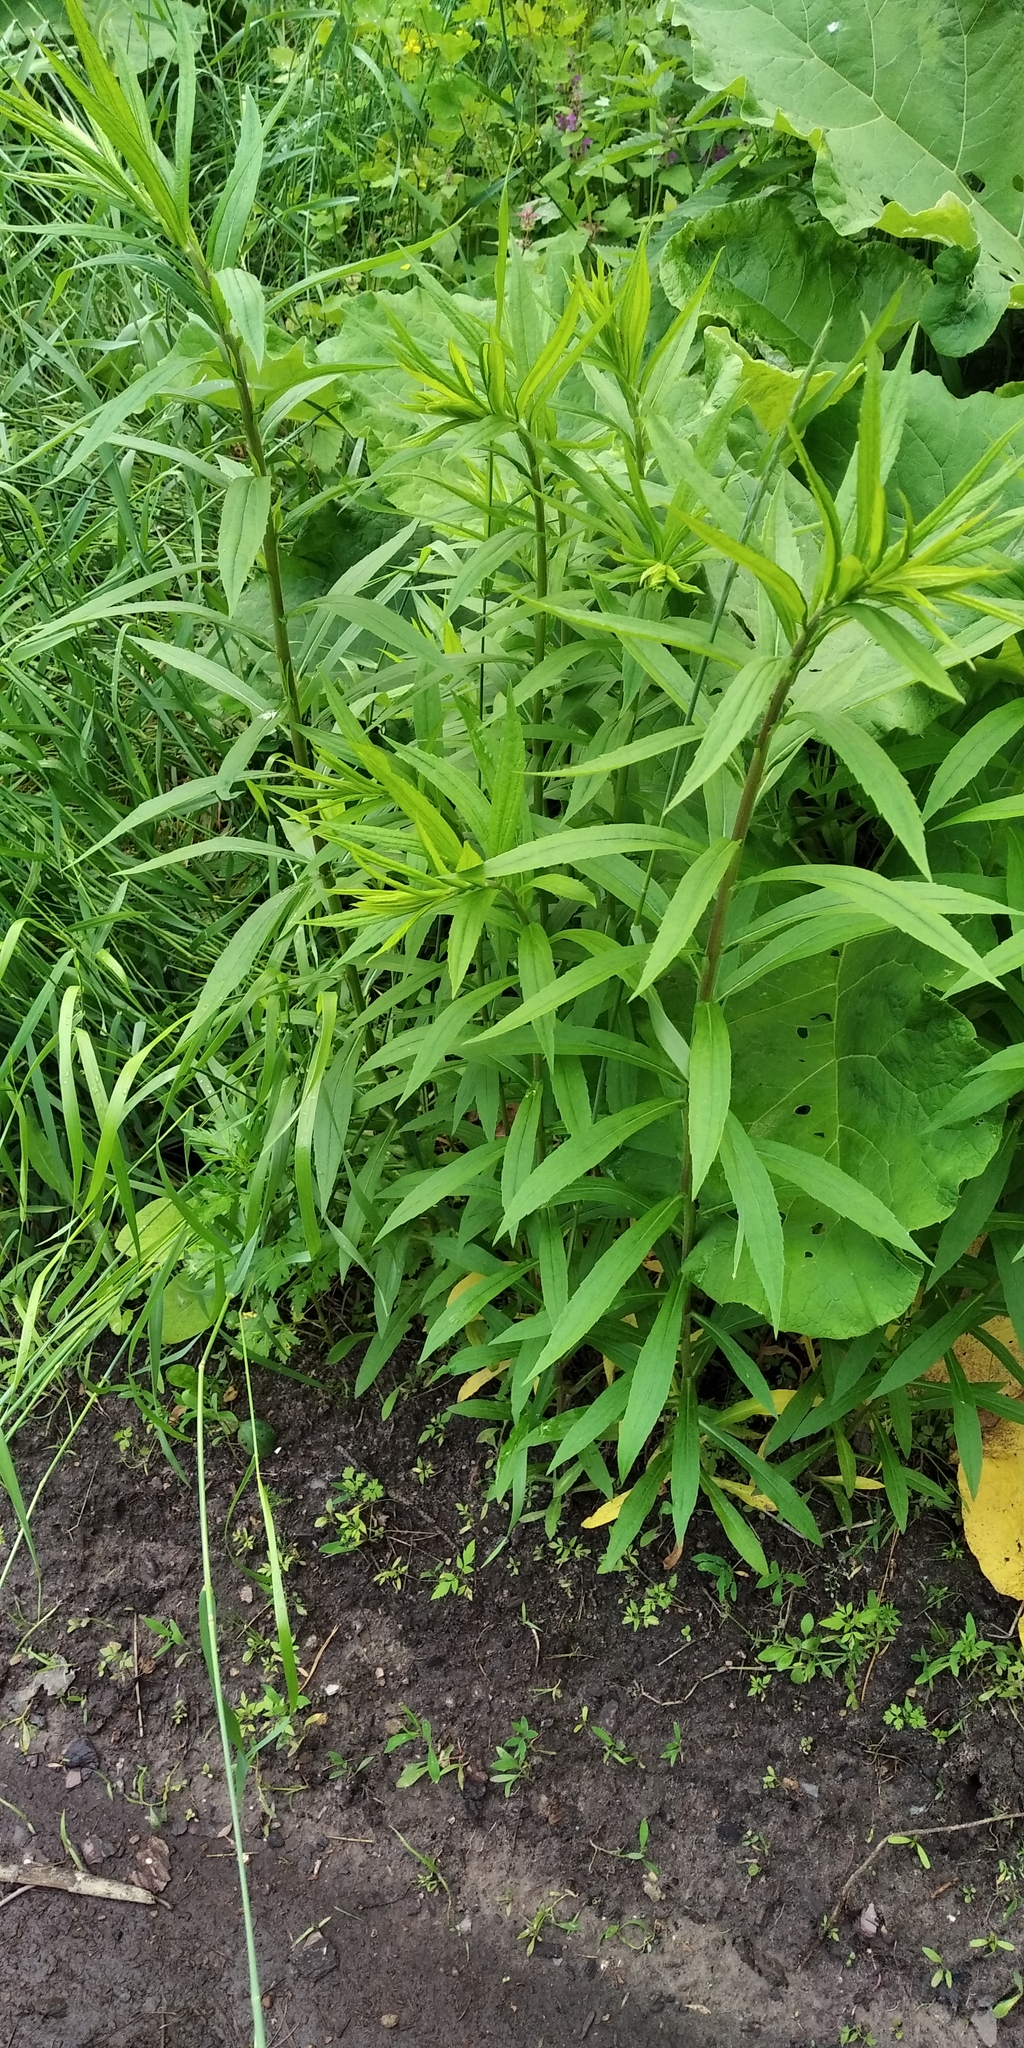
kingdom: Plantae
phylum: Tracheophyta
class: Magnoliopsida
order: Asterales
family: Asteraceae
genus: Solidago
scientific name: Solidago canadensis
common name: Canada goldenrod
